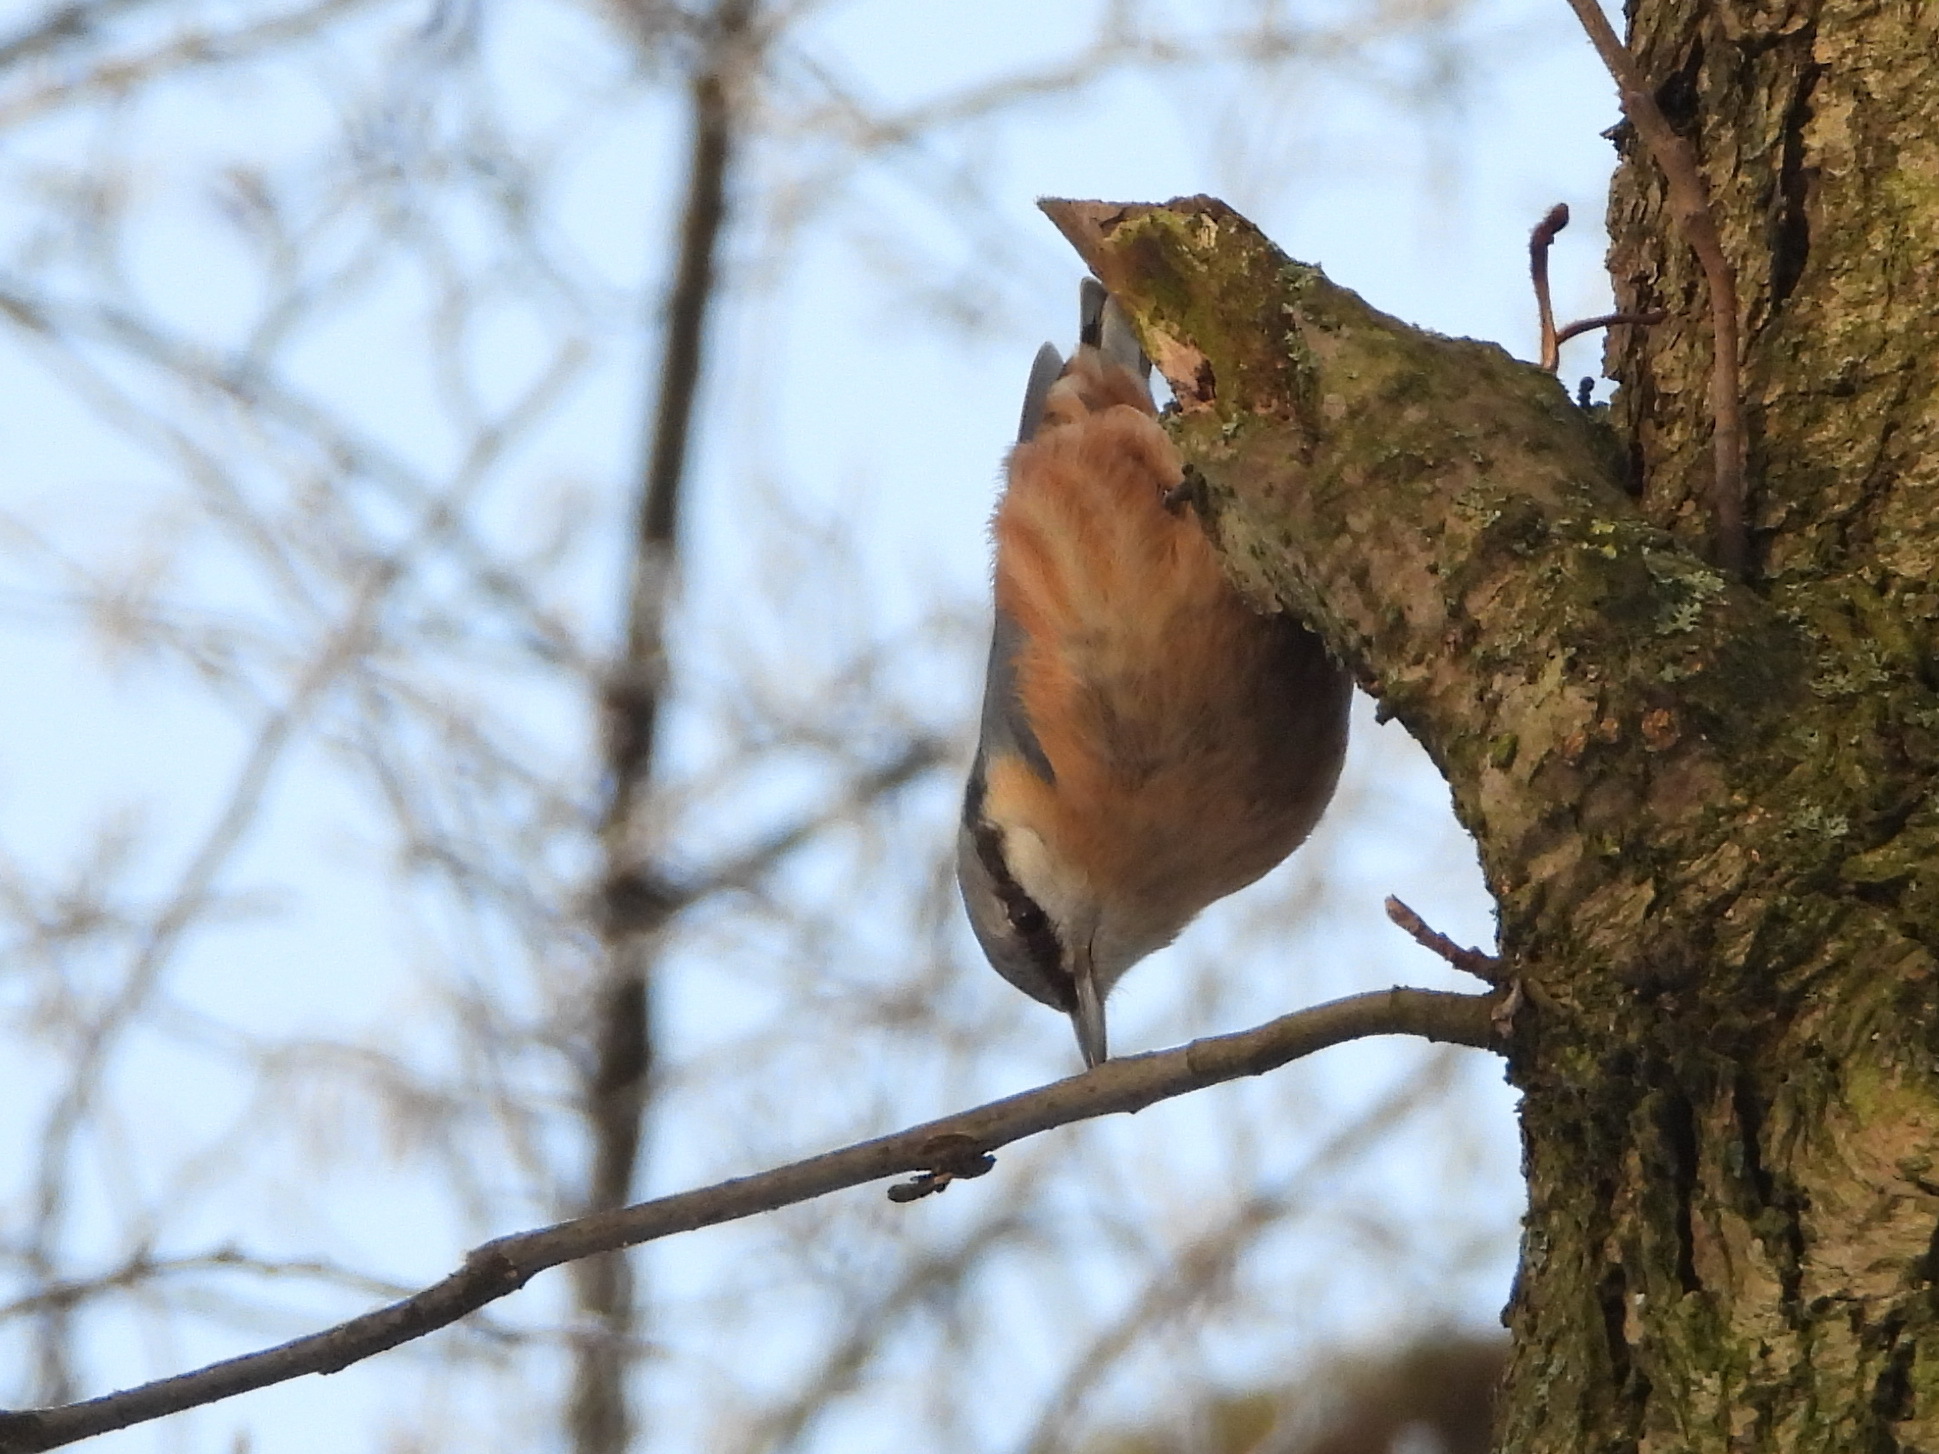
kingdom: Animalia
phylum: Chordata
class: Aves
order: Passeriformes
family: Sittidae
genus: Sitta
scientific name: Sitta europaea
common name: Eurasian nuthatch
